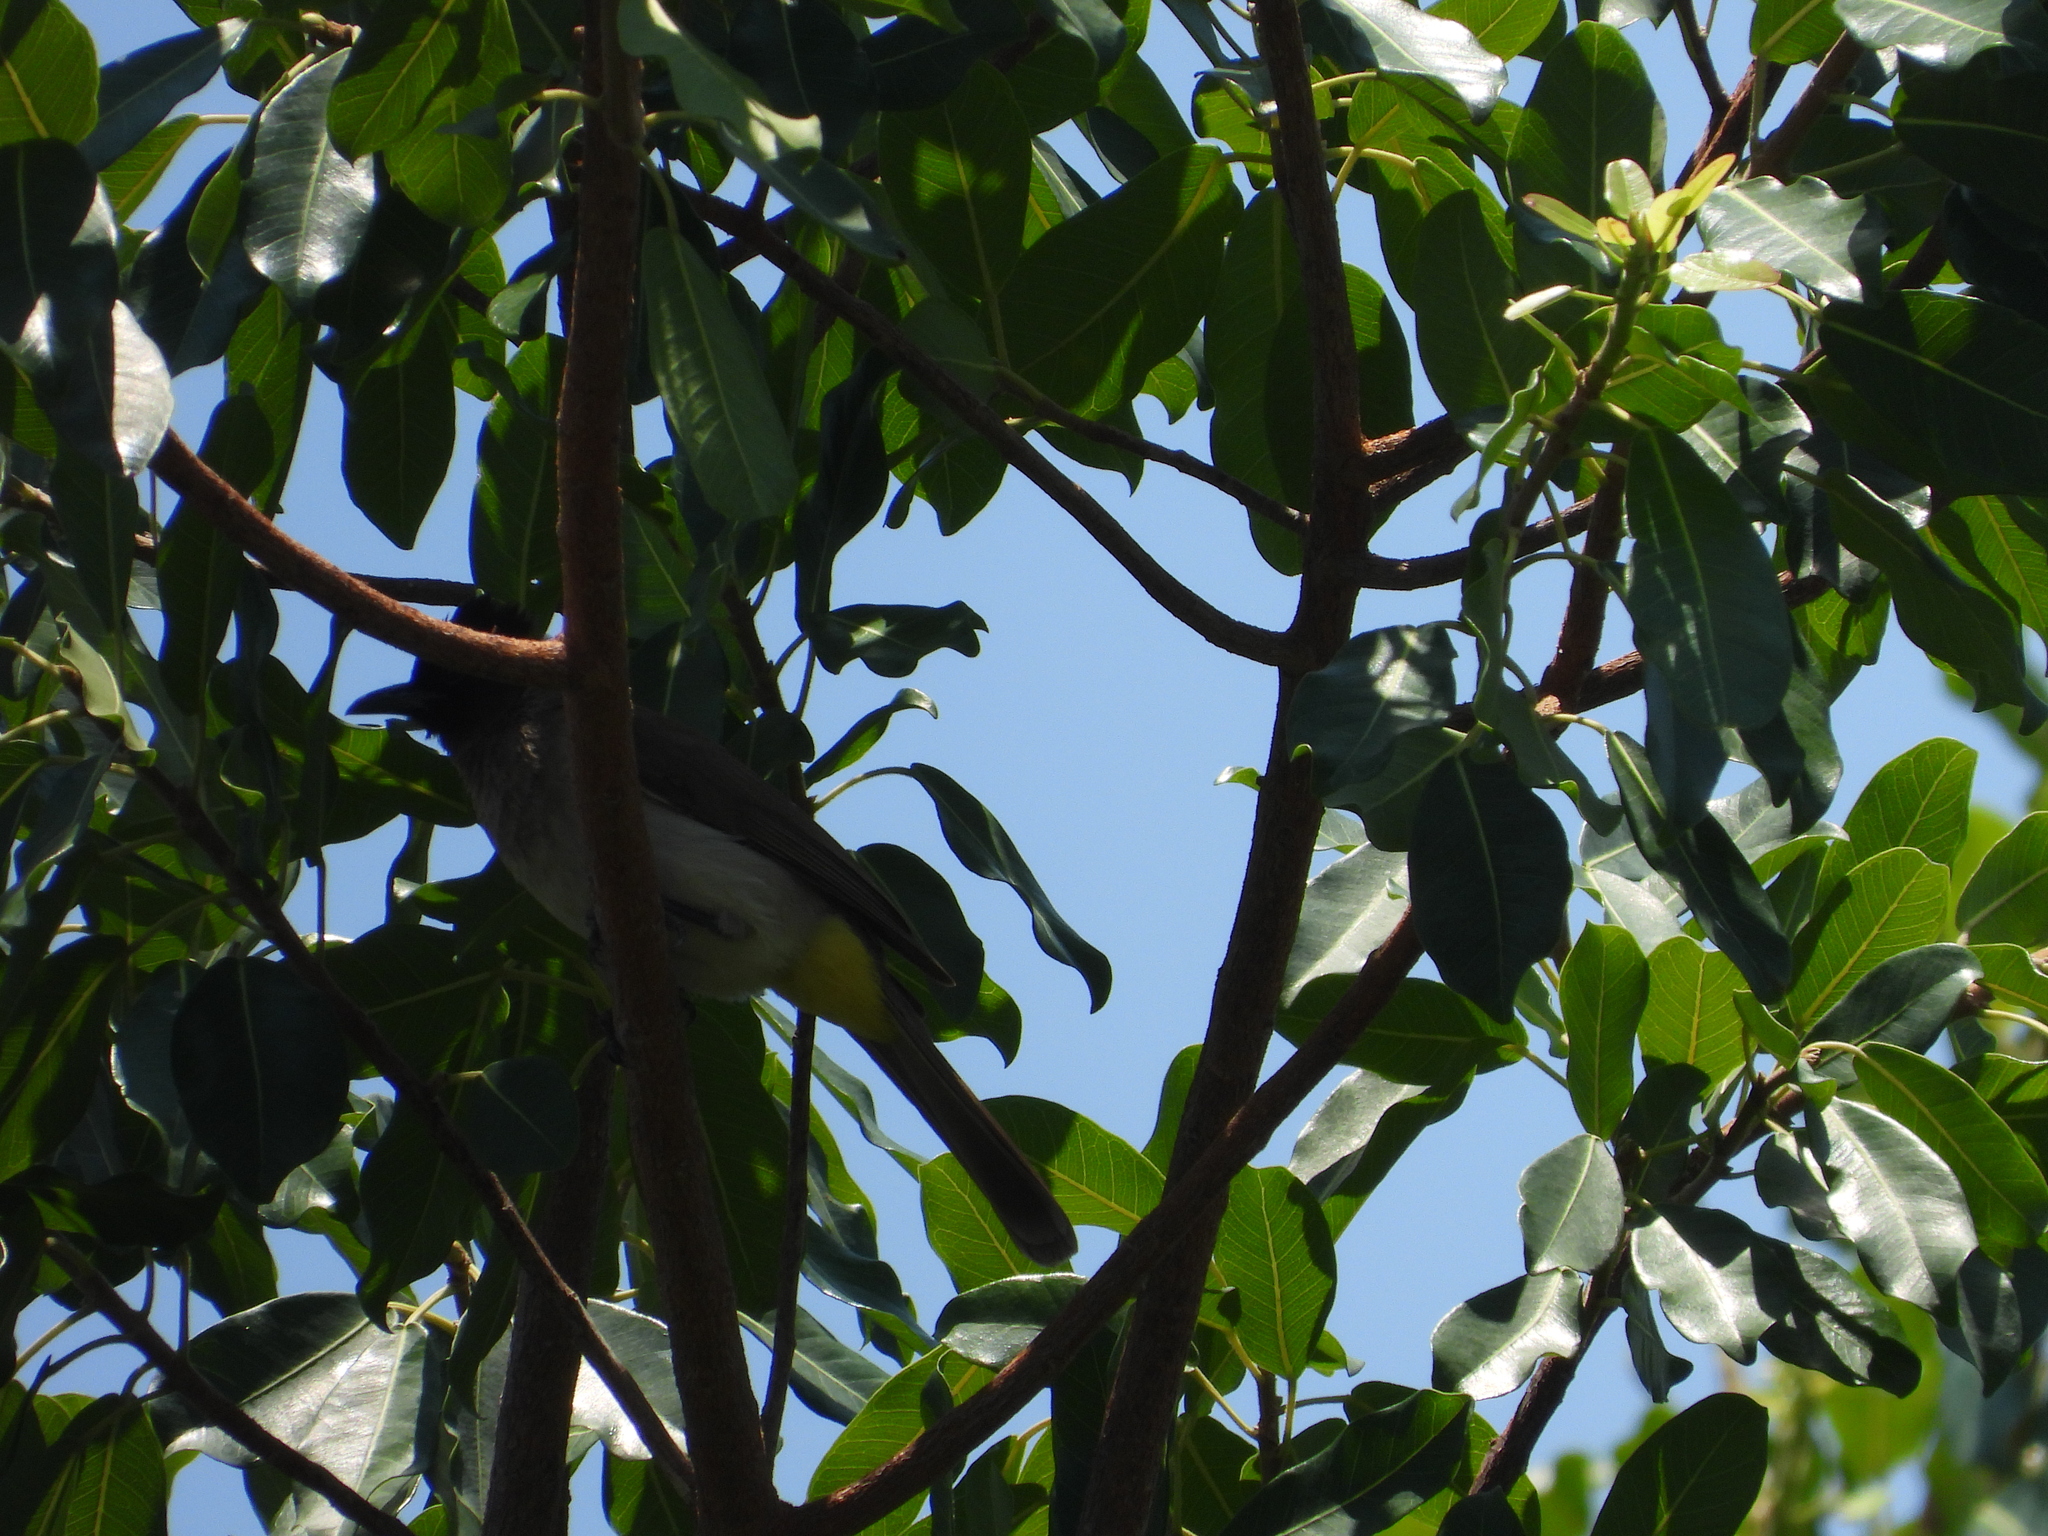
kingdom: Animalia
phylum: Chordata
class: Aves
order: Passeriformes
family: Pycnonotidae
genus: Pycnonotus
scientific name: Pycnonotus barbatus
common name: Common bulbul
